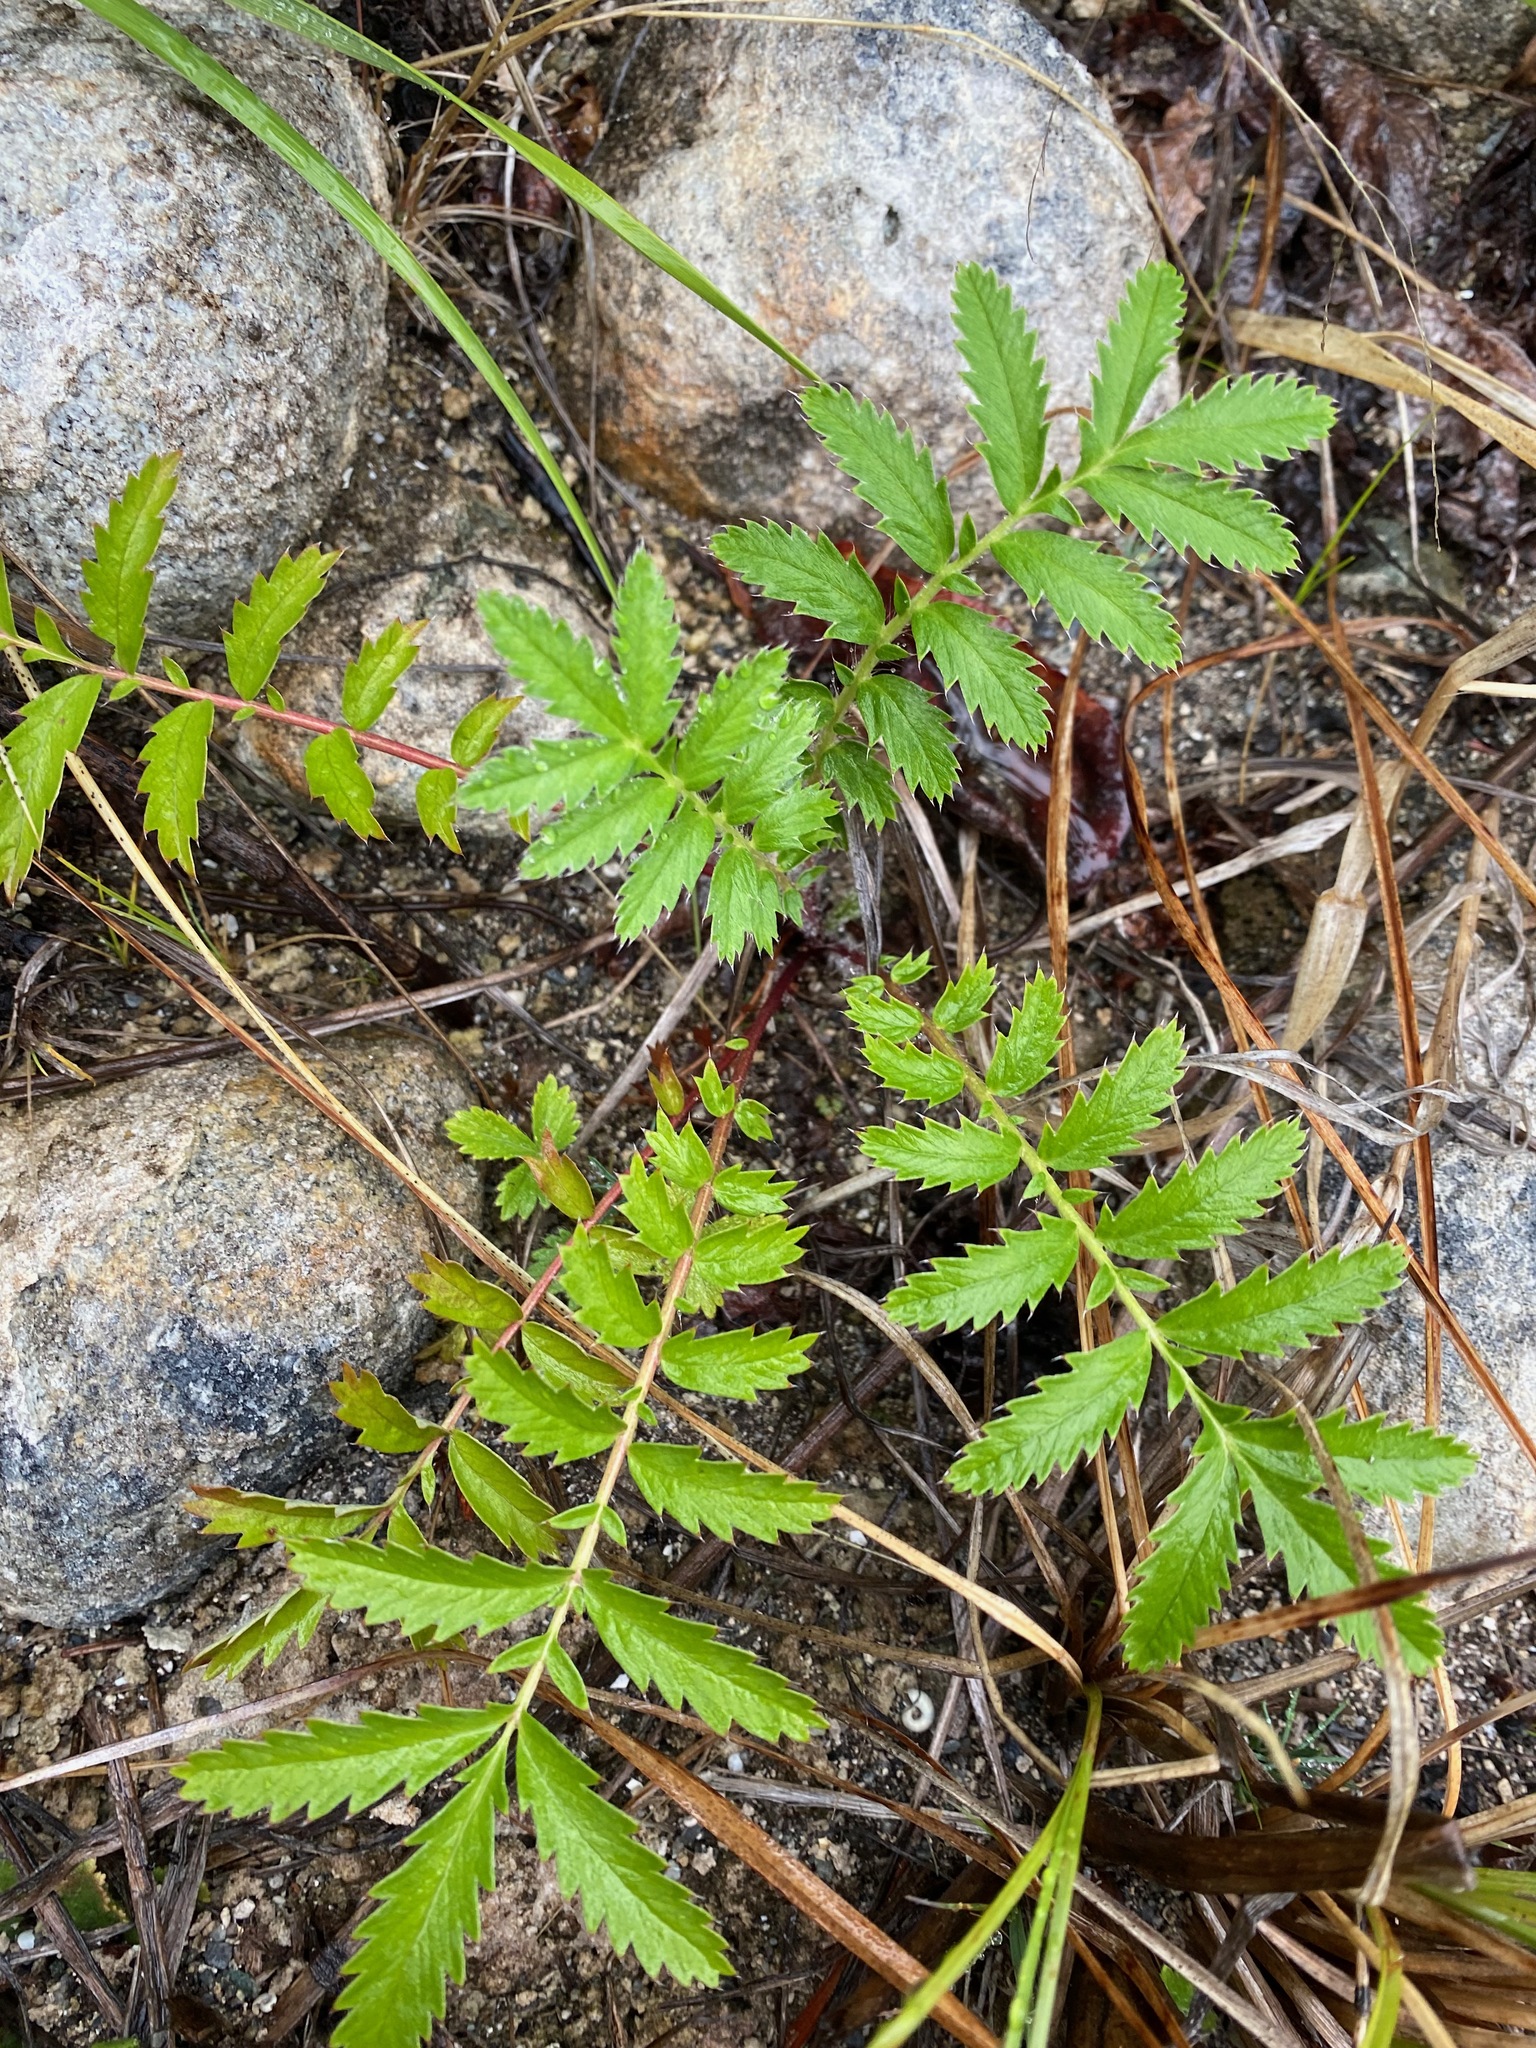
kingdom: Plantae
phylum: Tracheophyta
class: Magnoliopsida
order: Rosales
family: Rosaceae
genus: Argentina
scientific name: Argentina anserina
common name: Common silverweed
